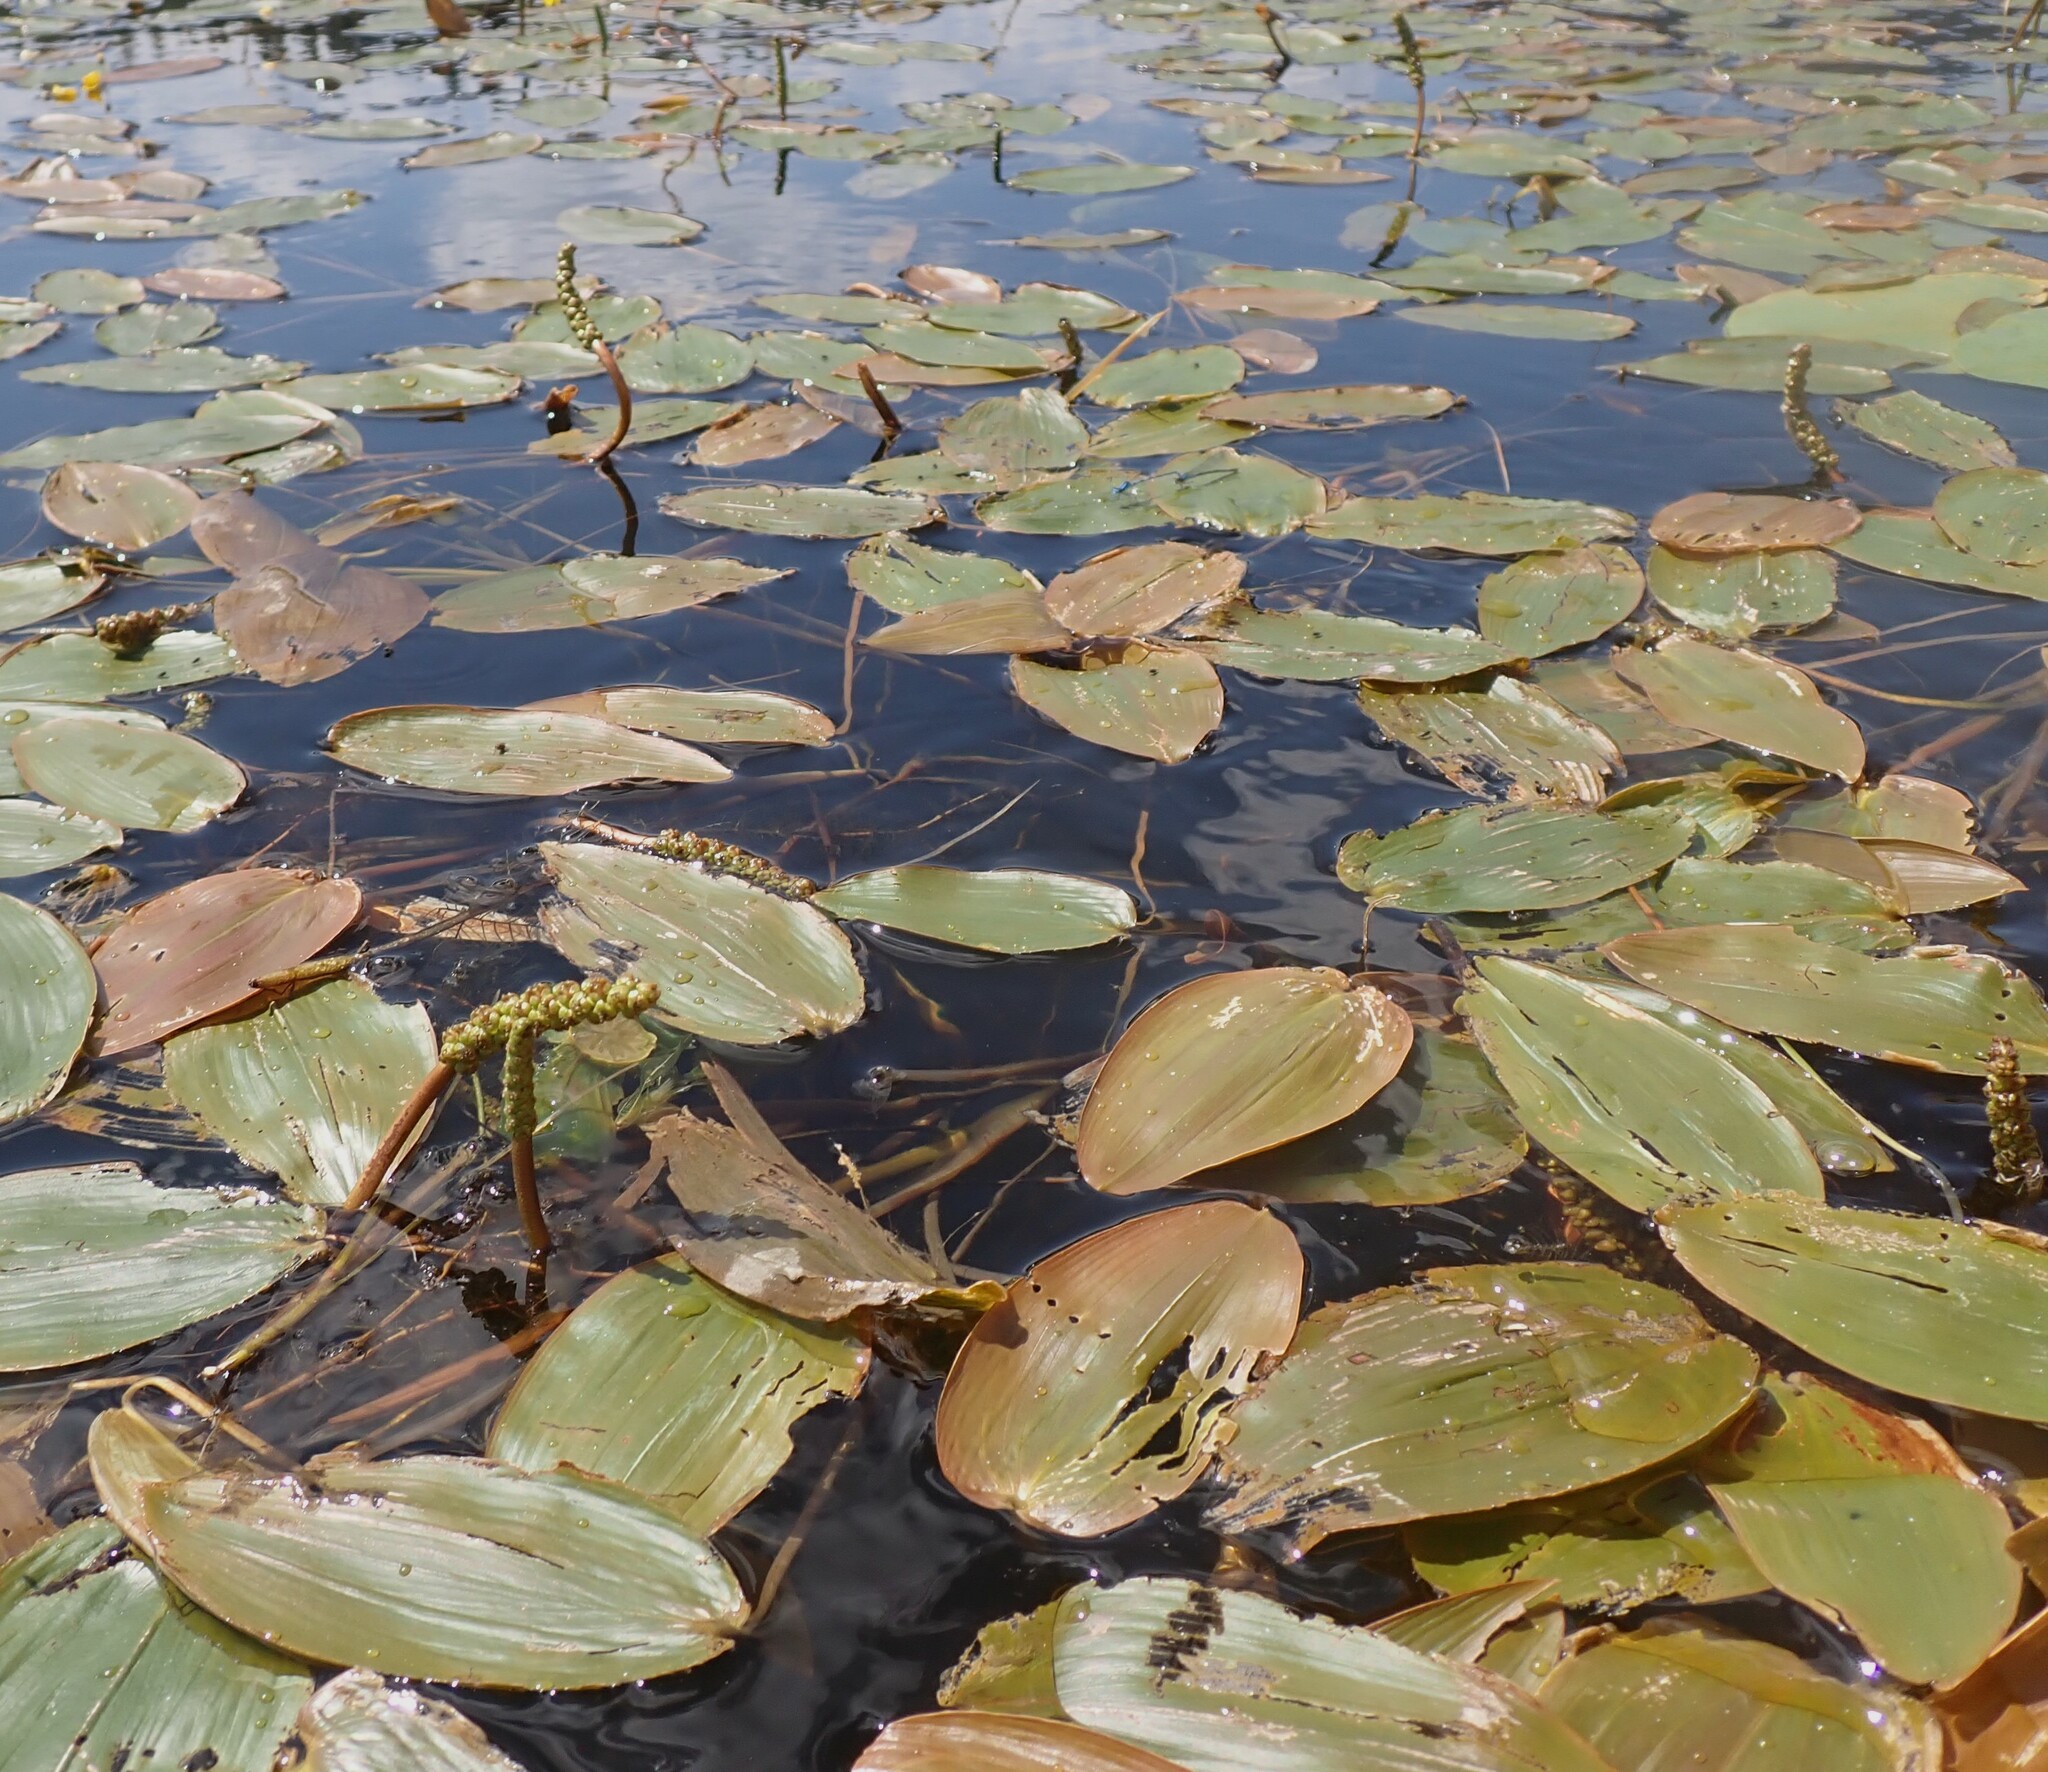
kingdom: Plantae
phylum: Tracheophyta
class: Liliopsida
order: Alismatales
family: Potamogetonaceae
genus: Potamogeton
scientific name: Potamogeton natans
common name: Broad-leaved pondweed
